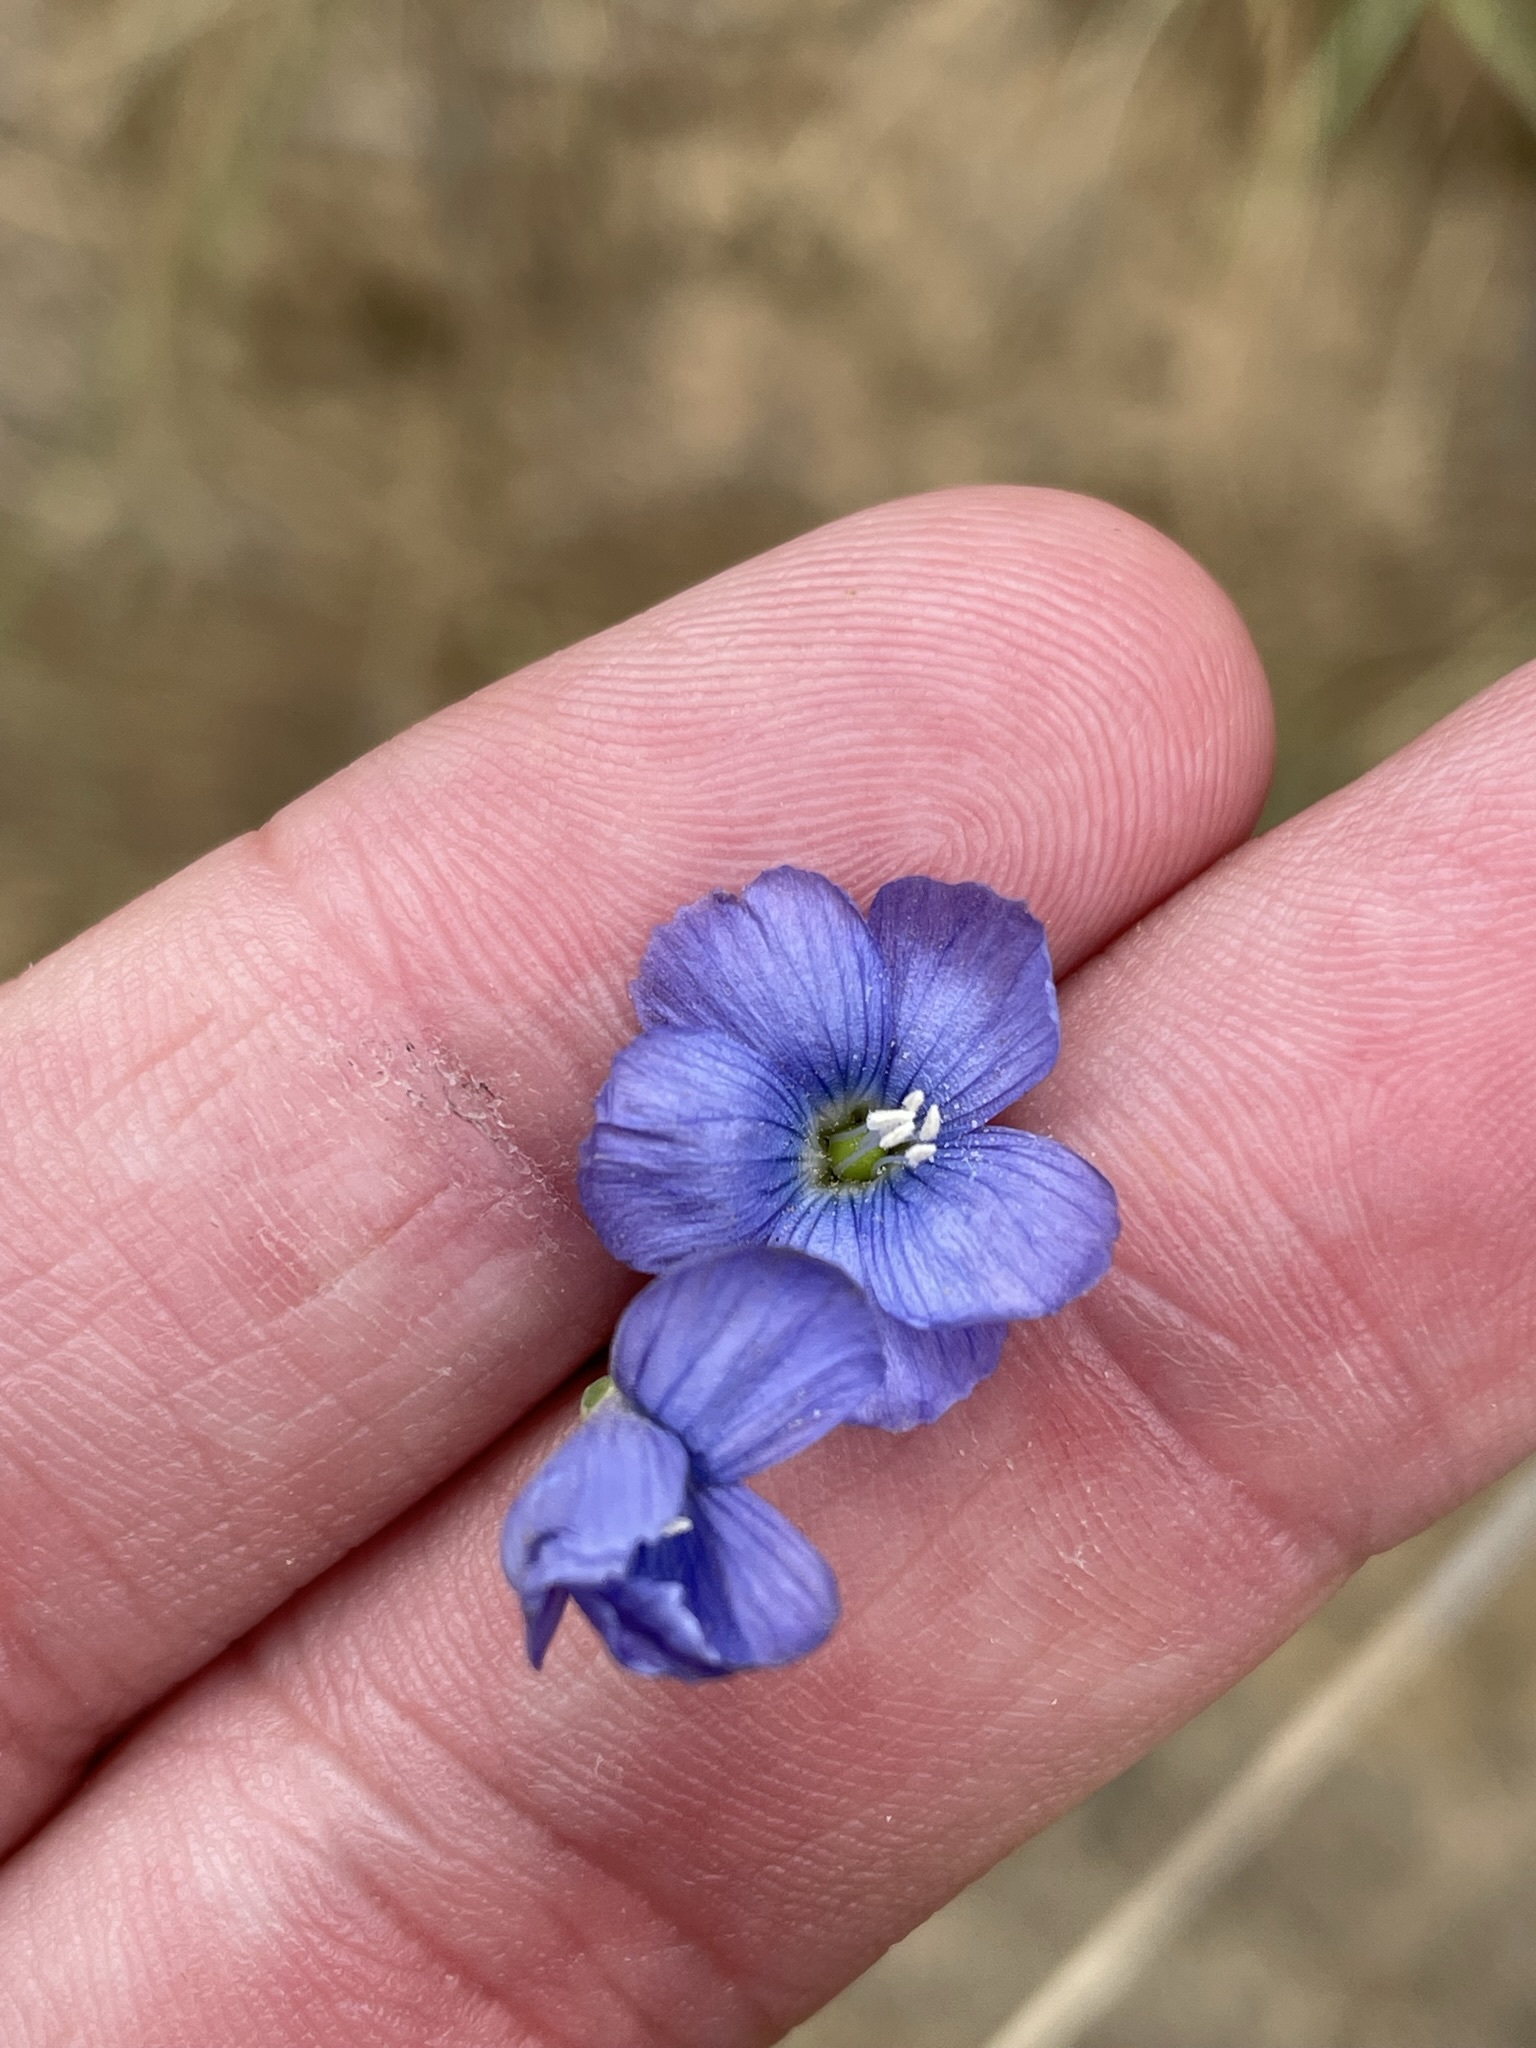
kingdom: Plantae
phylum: Tracheophyta
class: Magnoliopsida
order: Malpighiales
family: Linaceae
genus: Linum
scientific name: Linum marginale
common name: Wild flax
